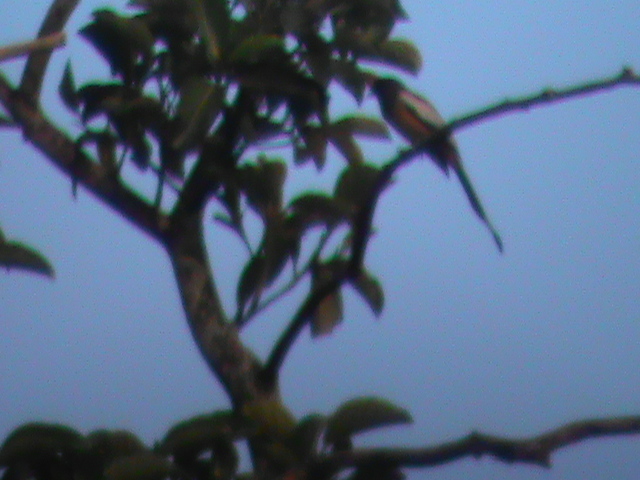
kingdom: Animalia
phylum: Chordata
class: Aves
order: Passeriformes
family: Corvidae
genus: Dendrocitta
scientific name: Dendrocitta vagabunda
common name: Rufous treepie
